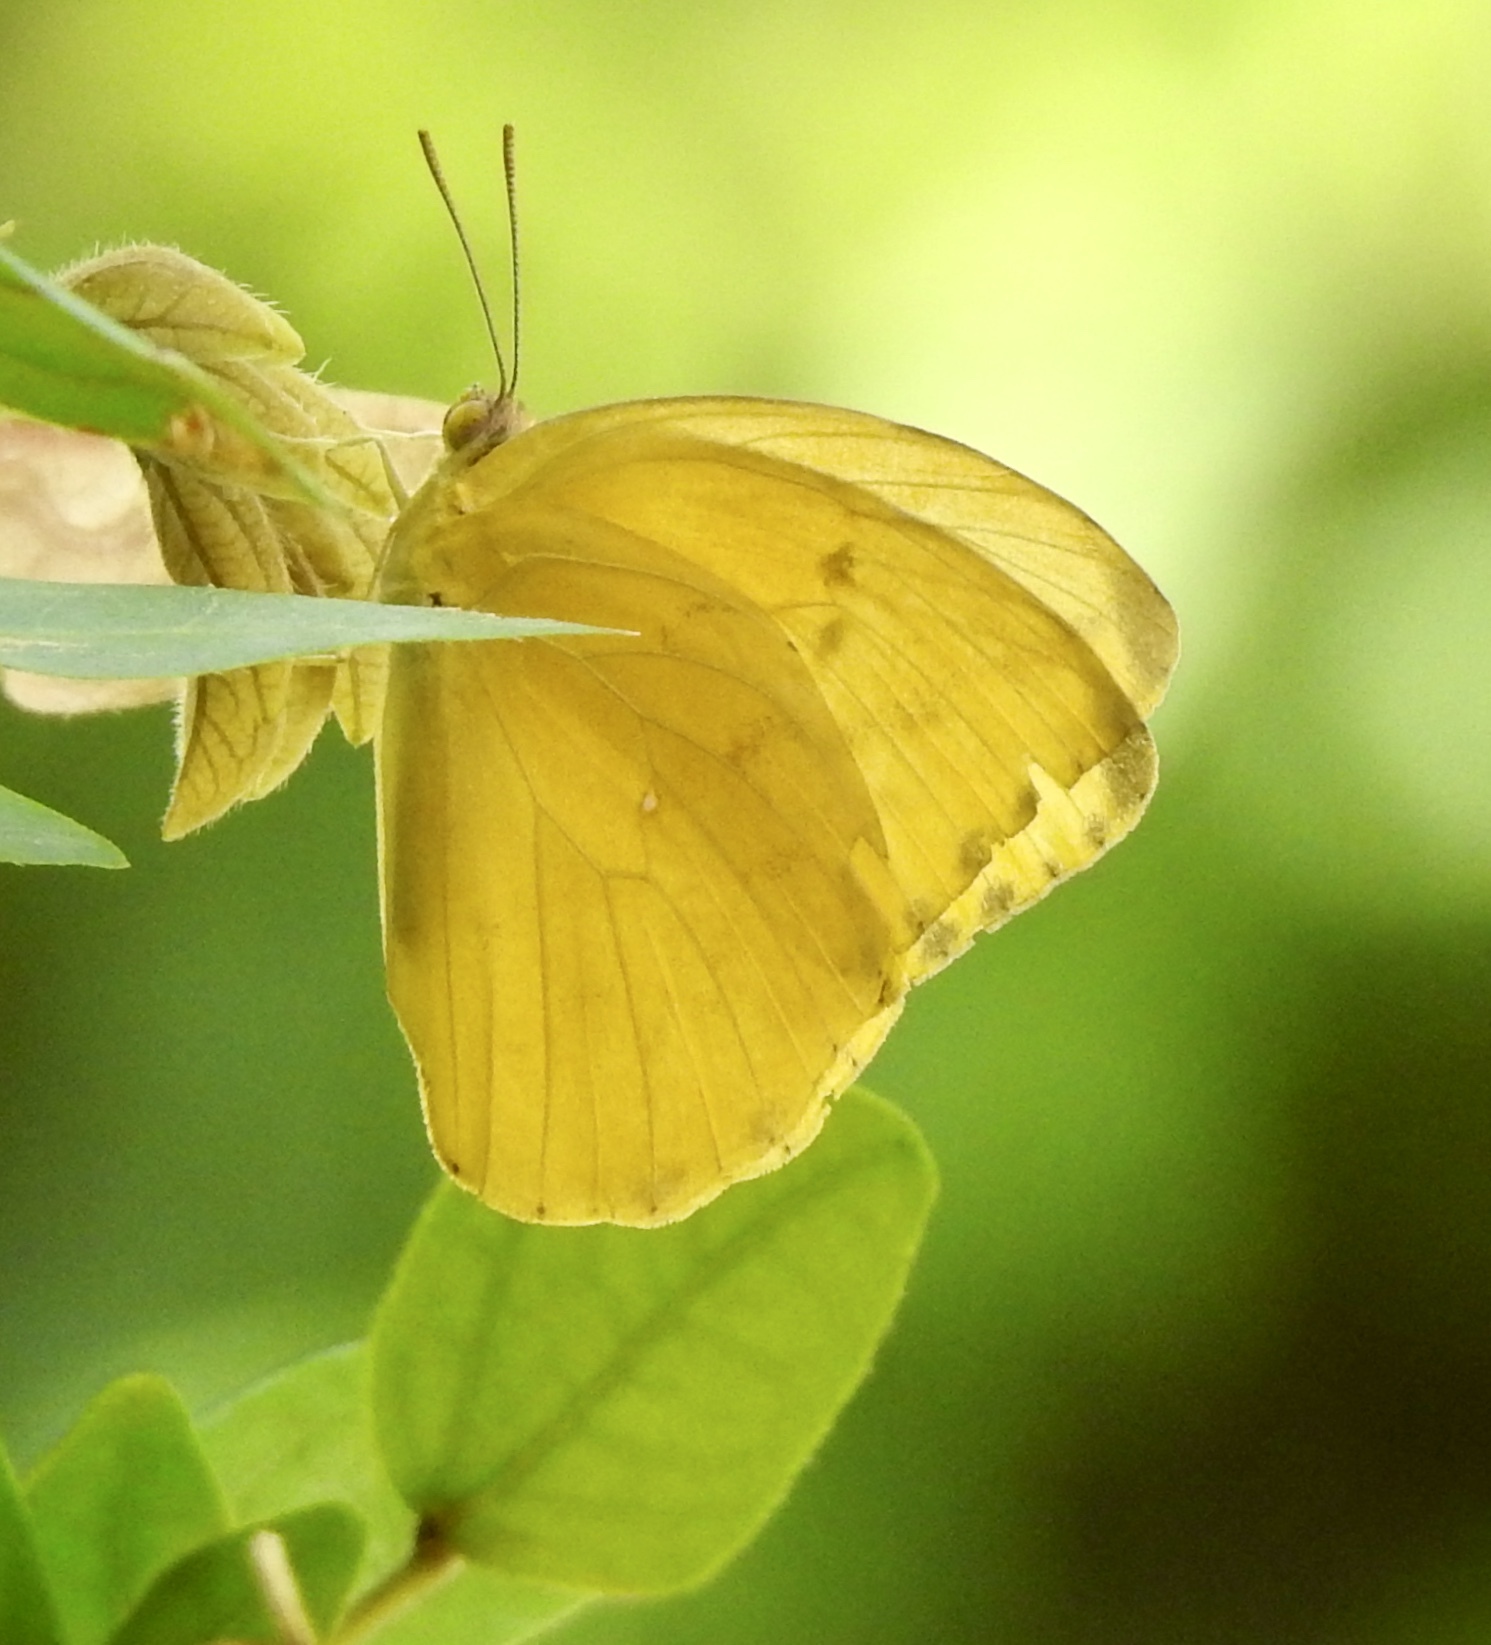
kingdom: Animalia
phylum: Arthropoda
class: Insecta
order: Lepidoptera
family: Pieridae
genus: Phoebis
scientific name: Phoebis agarithe
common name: Large orange sulphur
